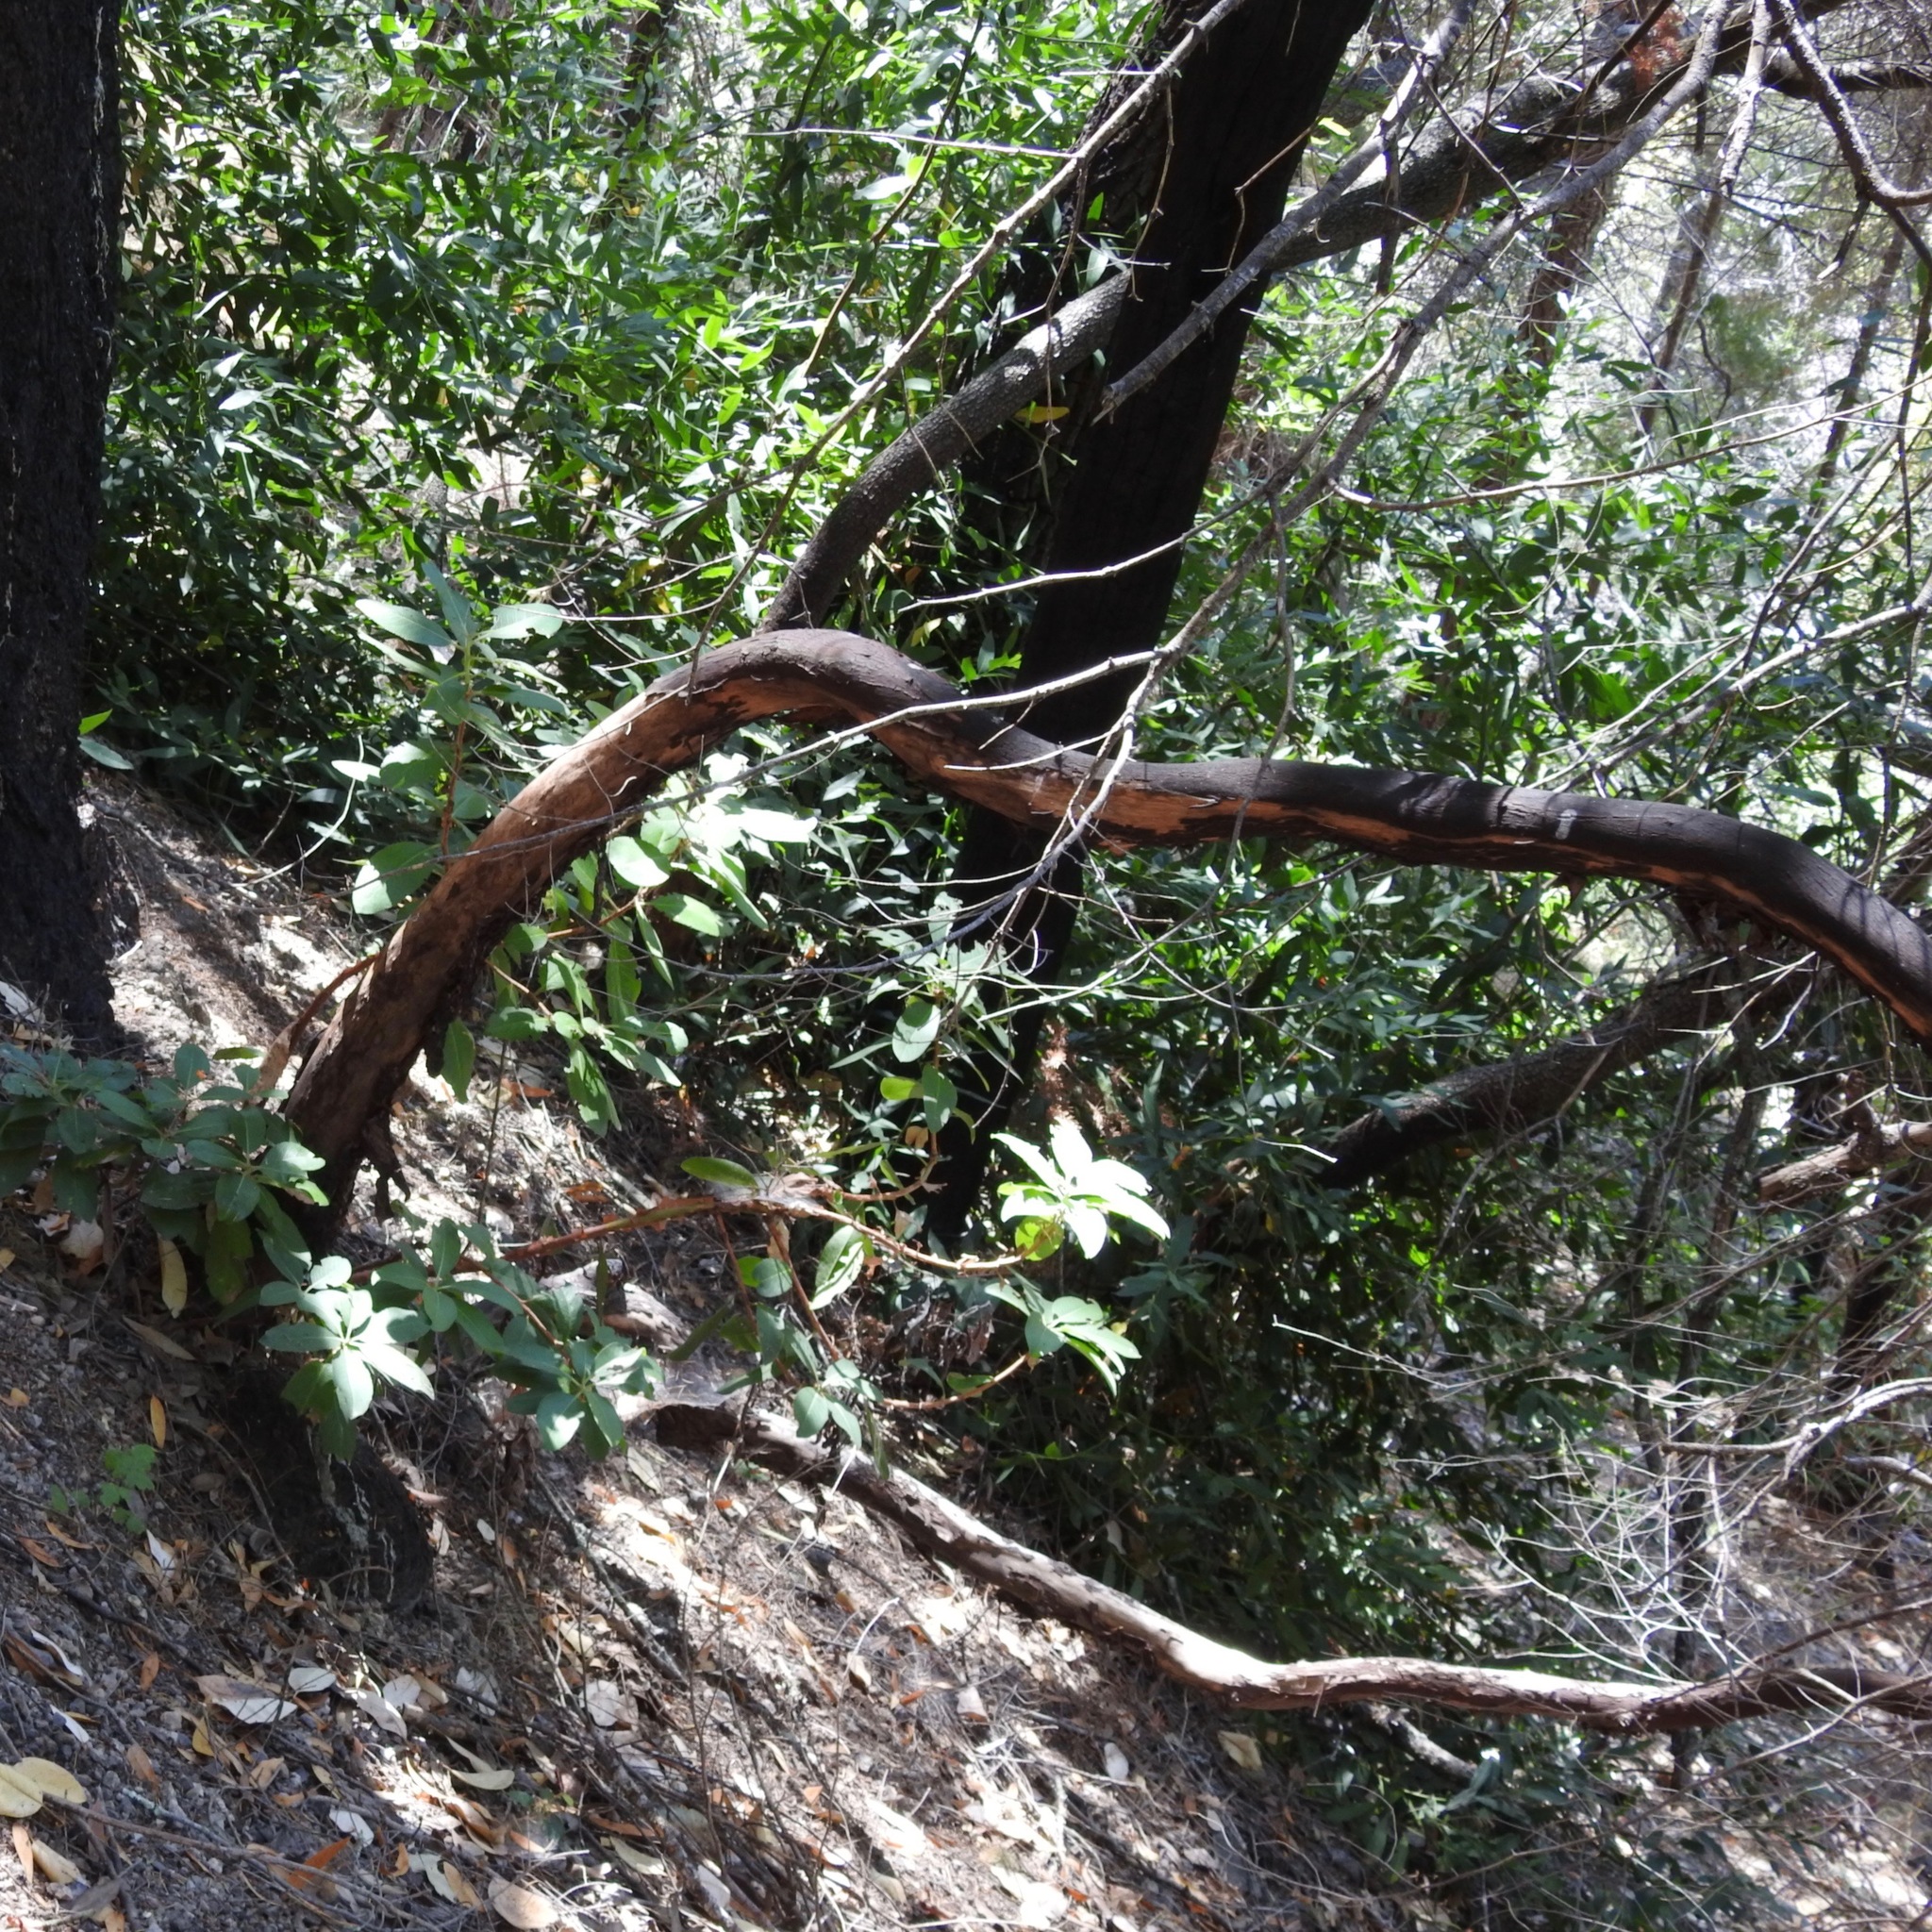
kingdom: Plantae
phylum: Tracheophyta
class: Magnoliopsida
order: Ericales
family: Ericaceae
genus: Arbutus
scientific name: Arbutus menziesii
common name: Pacific madrone
